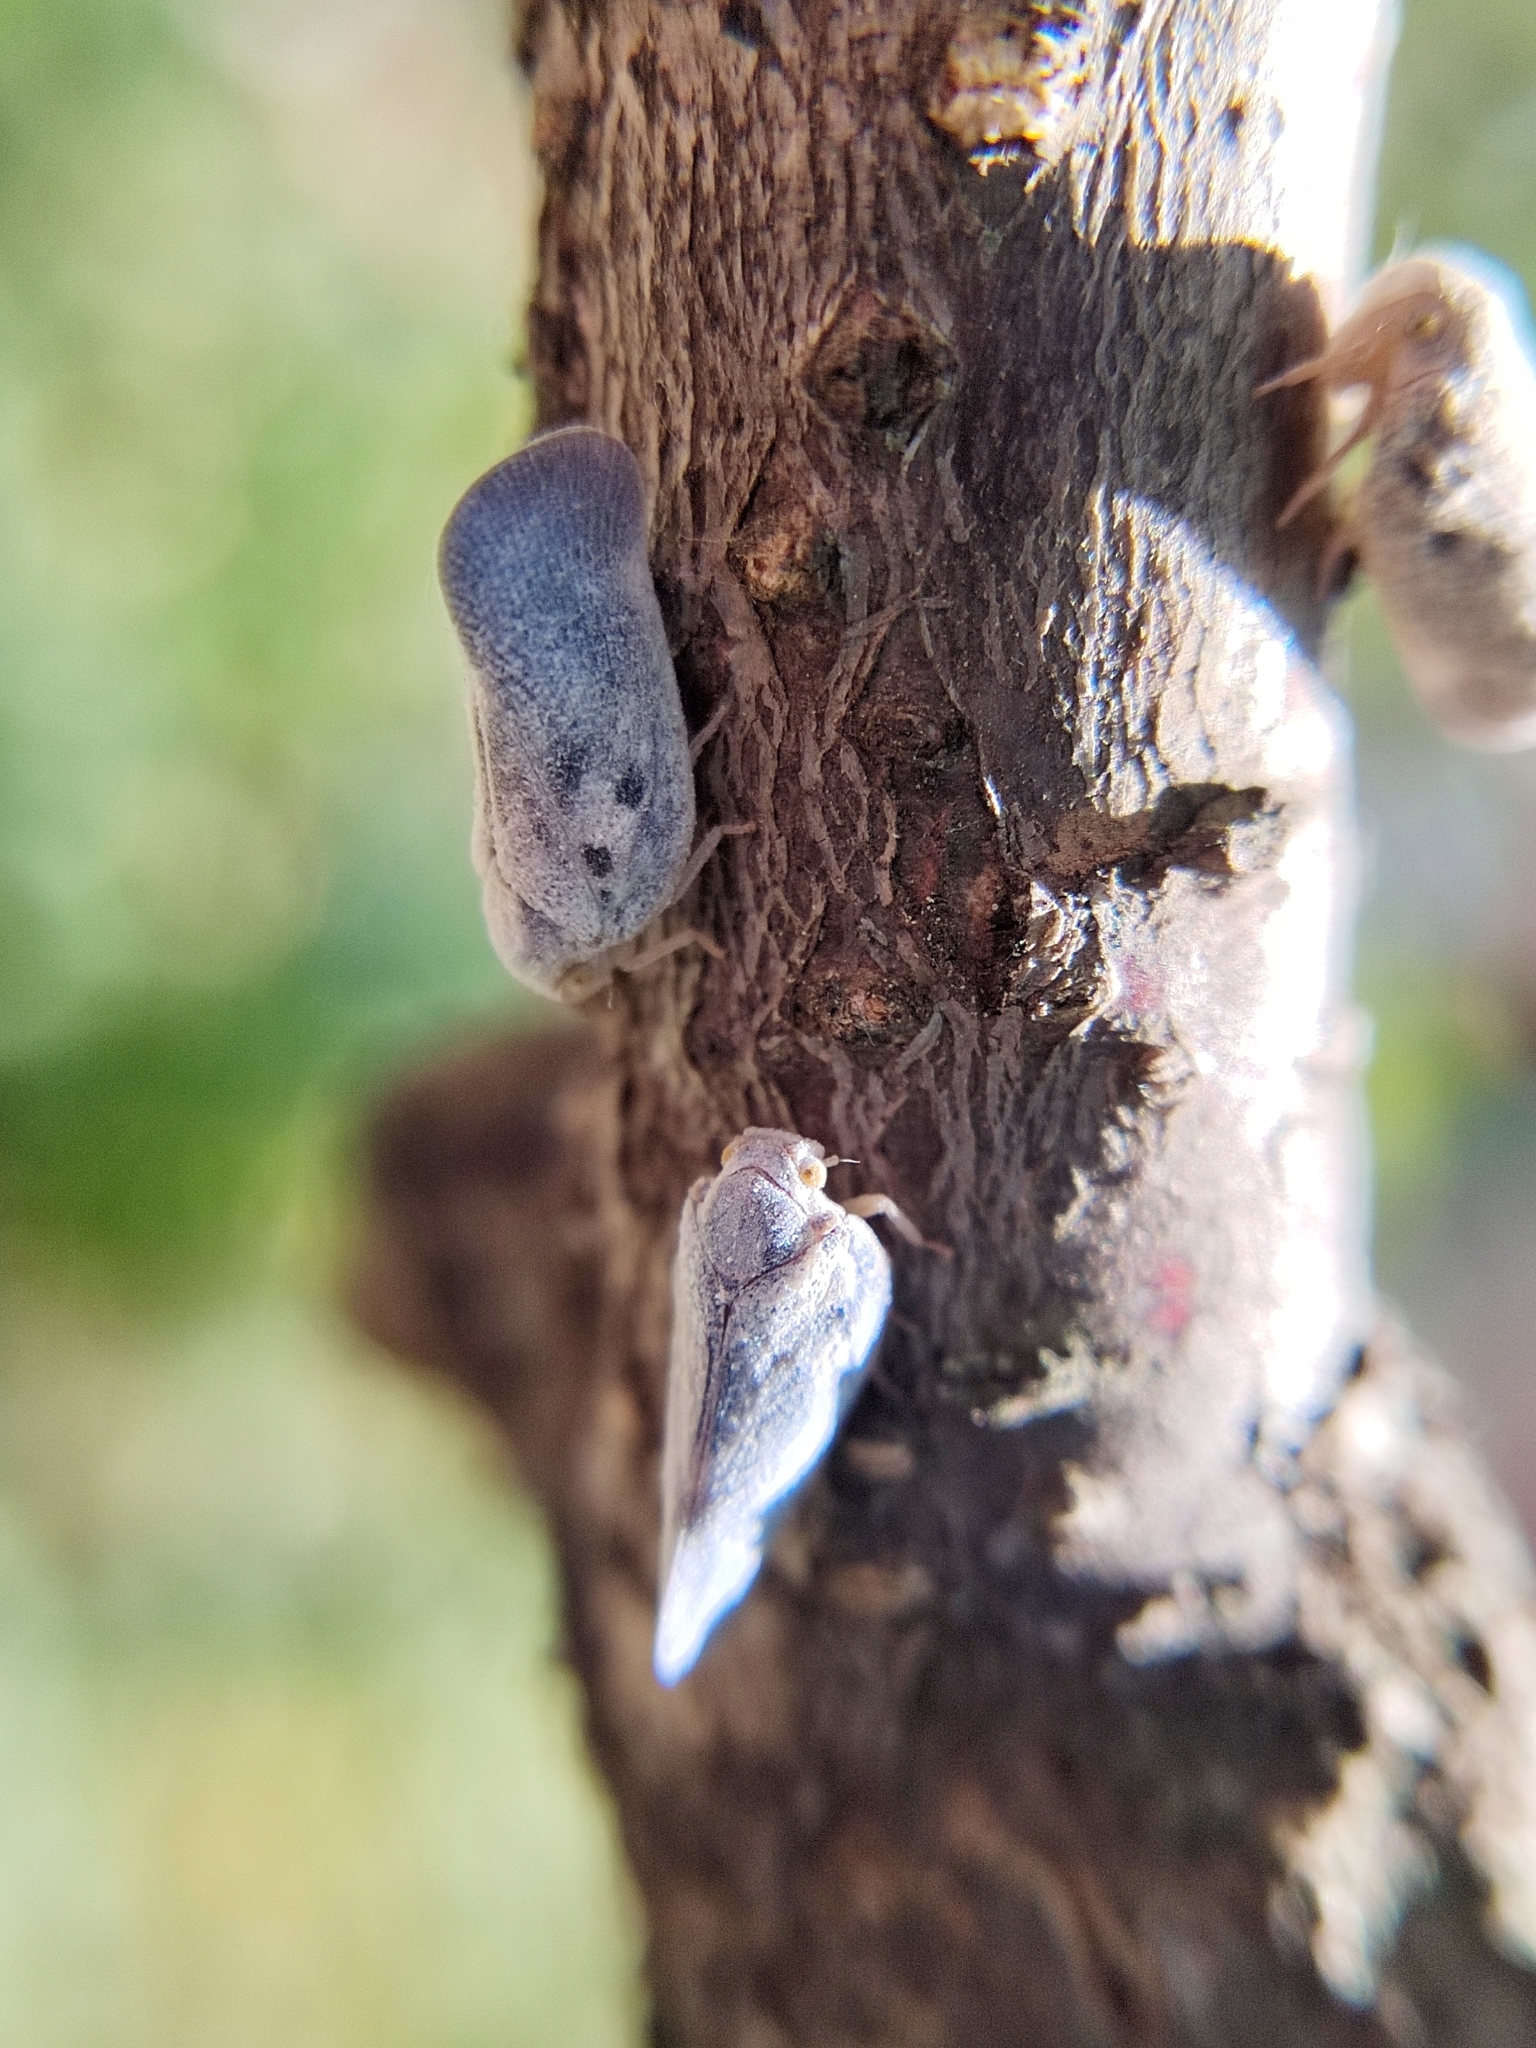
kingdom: Animalia
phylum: Arthropoda
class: Insecta
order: Hemiptera
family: Flatidae
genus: Metcalfa
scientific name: Metcalfa pruinosa
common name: Citrus flatid planthopper
